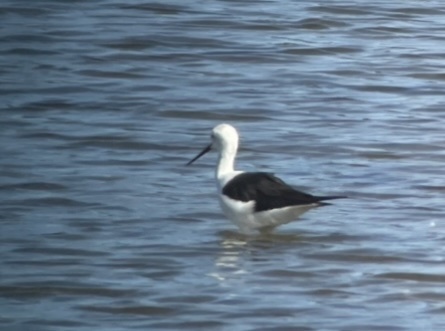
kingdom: Animalia
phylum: Chordata
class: Aves
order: Charadriiformes
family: Recurvirostridae
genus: Himantopus
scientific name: Himantopus himantopus
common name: Black-winged stilt
